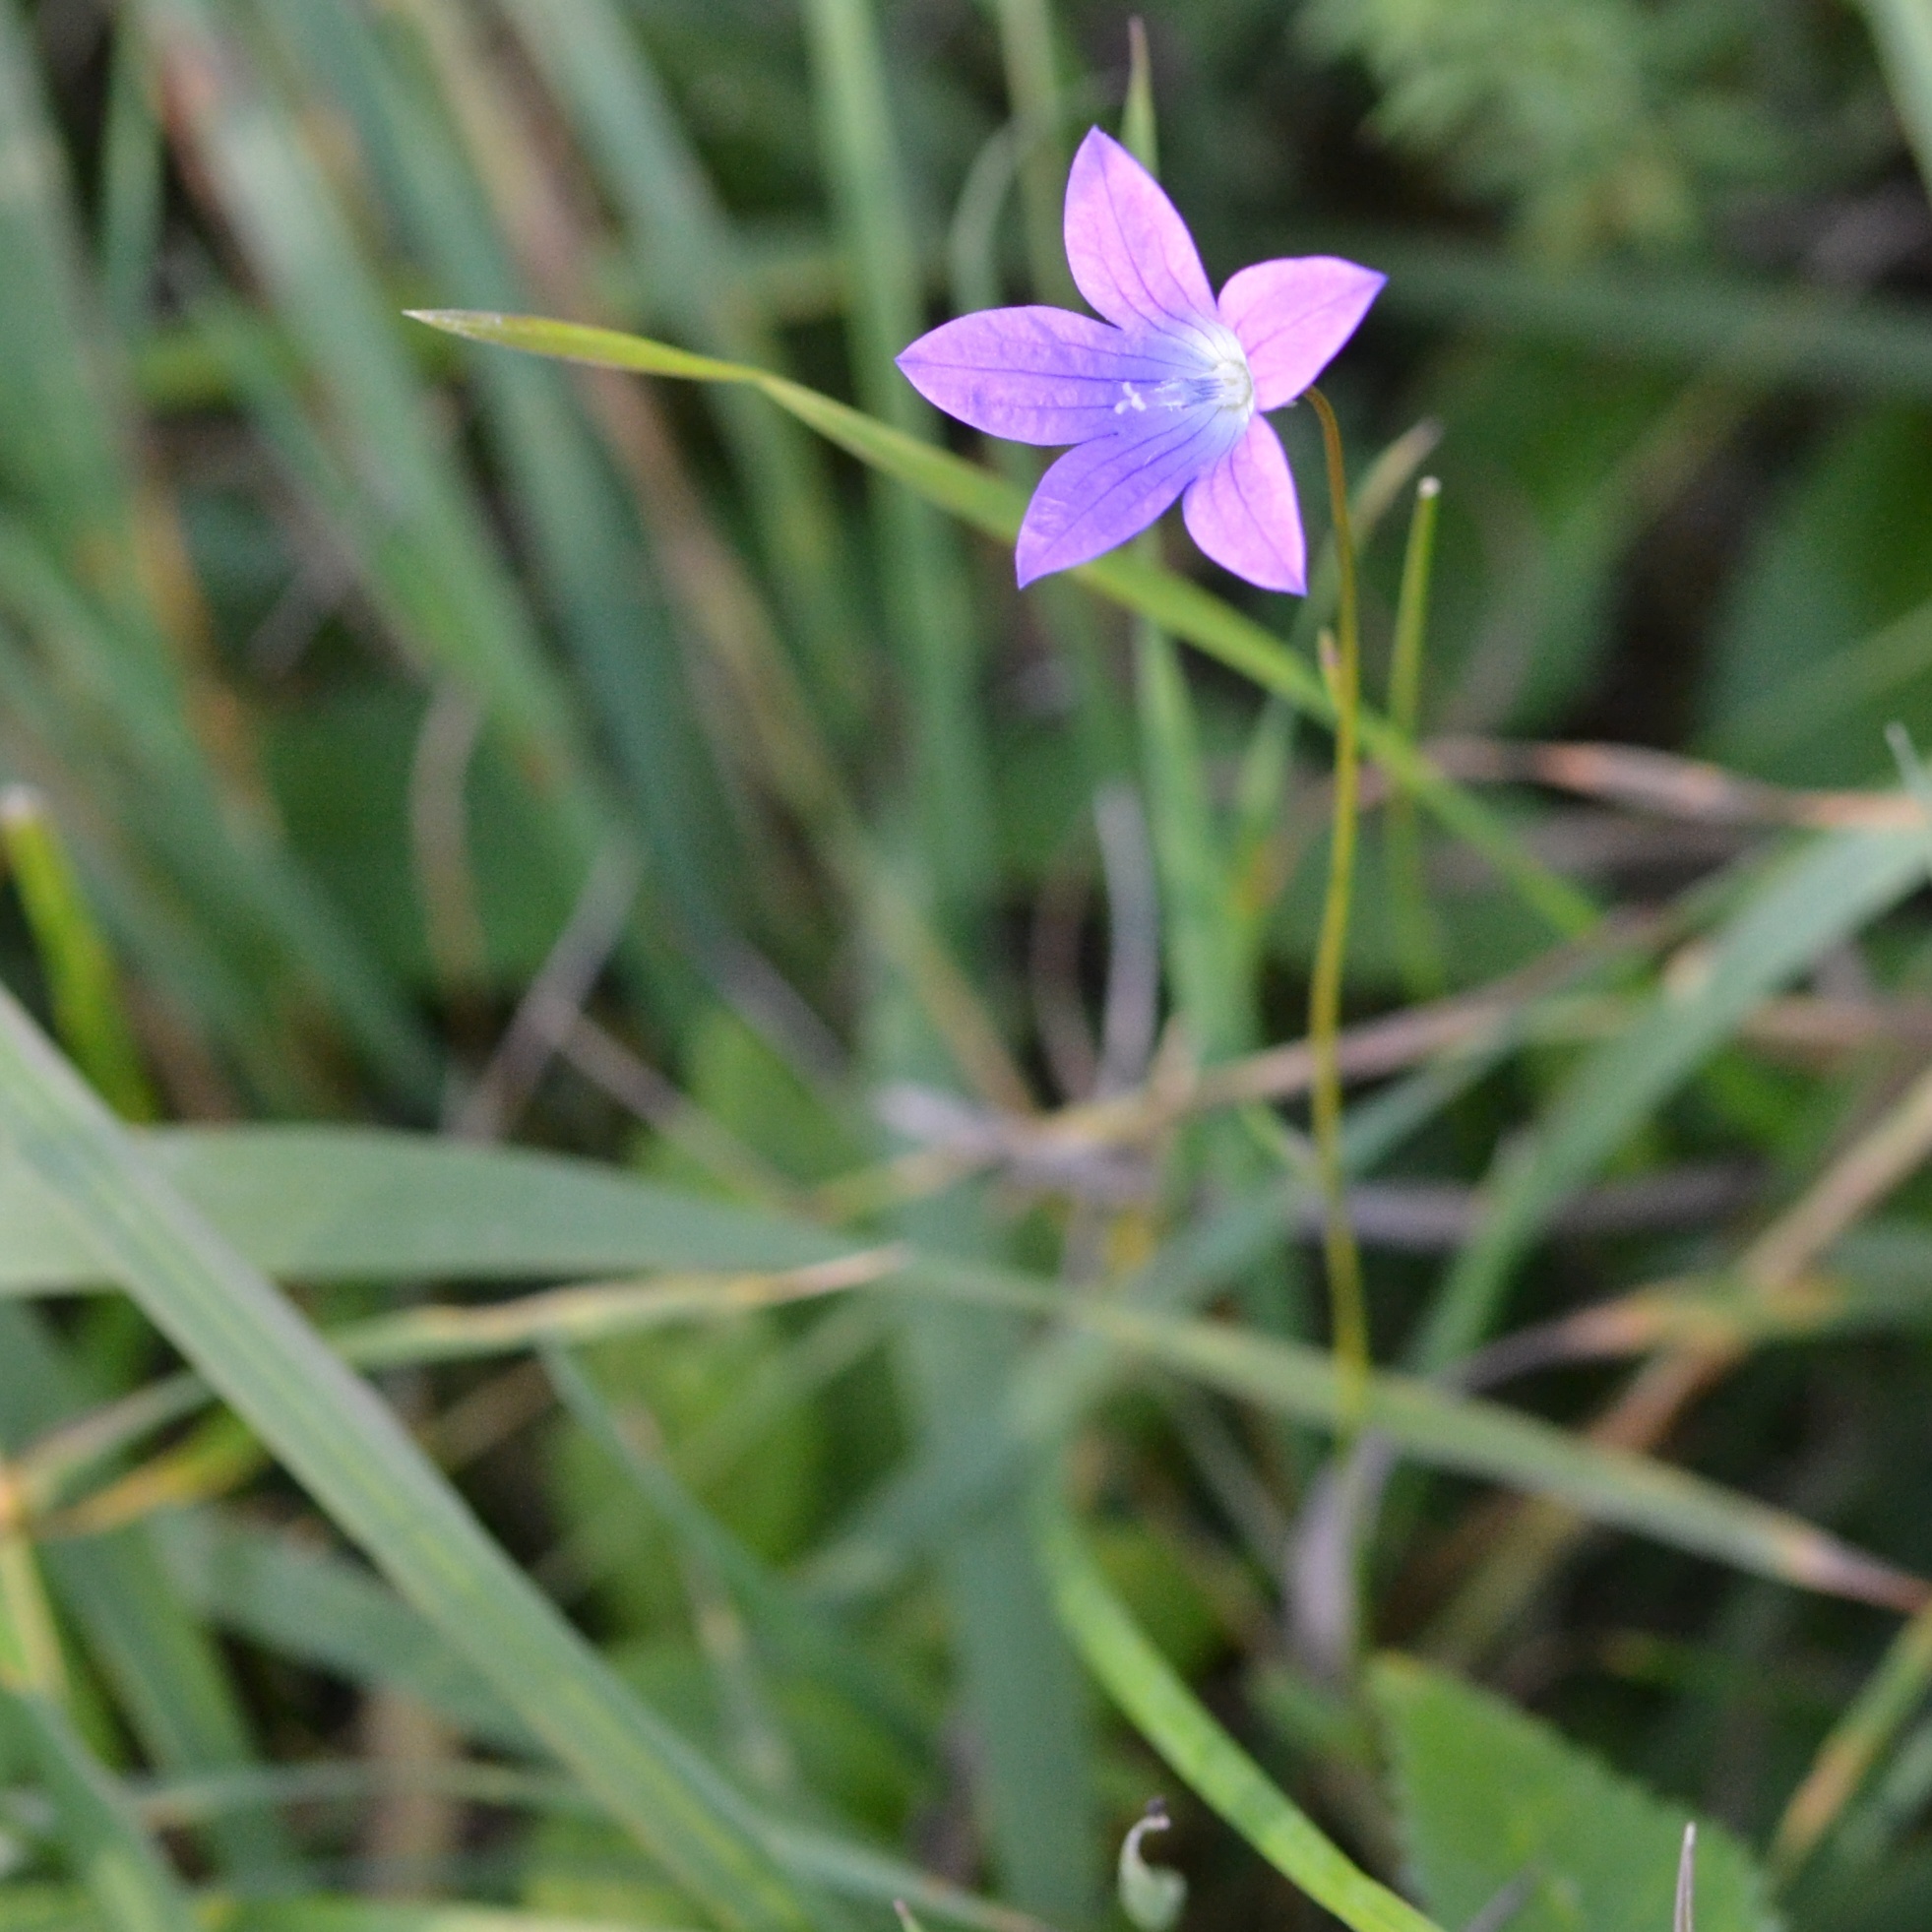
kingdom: Plantae
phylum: Tracheophyta
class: Magnoliopsida
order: Asterales
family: Campanulaceae
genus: Campanula
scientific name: Campanula patula
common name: Spreading bellflower
